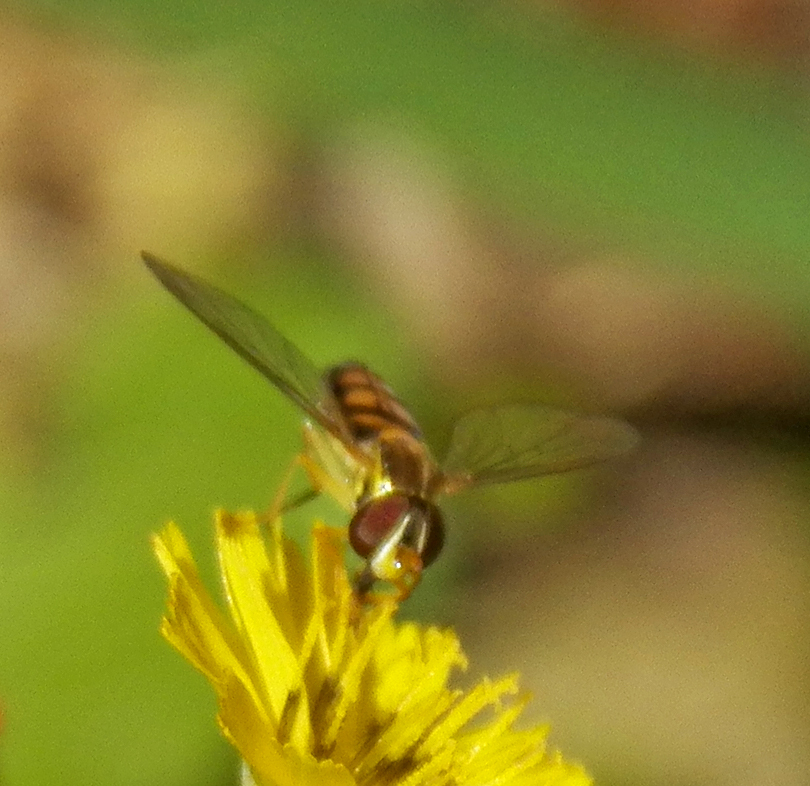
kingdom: Animalia
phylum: Arthropoda
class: Insecta
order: Diptera
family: Syrphidae
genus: Toxomerus
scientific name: Toxomerus marginatus
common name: Syrphid fly
